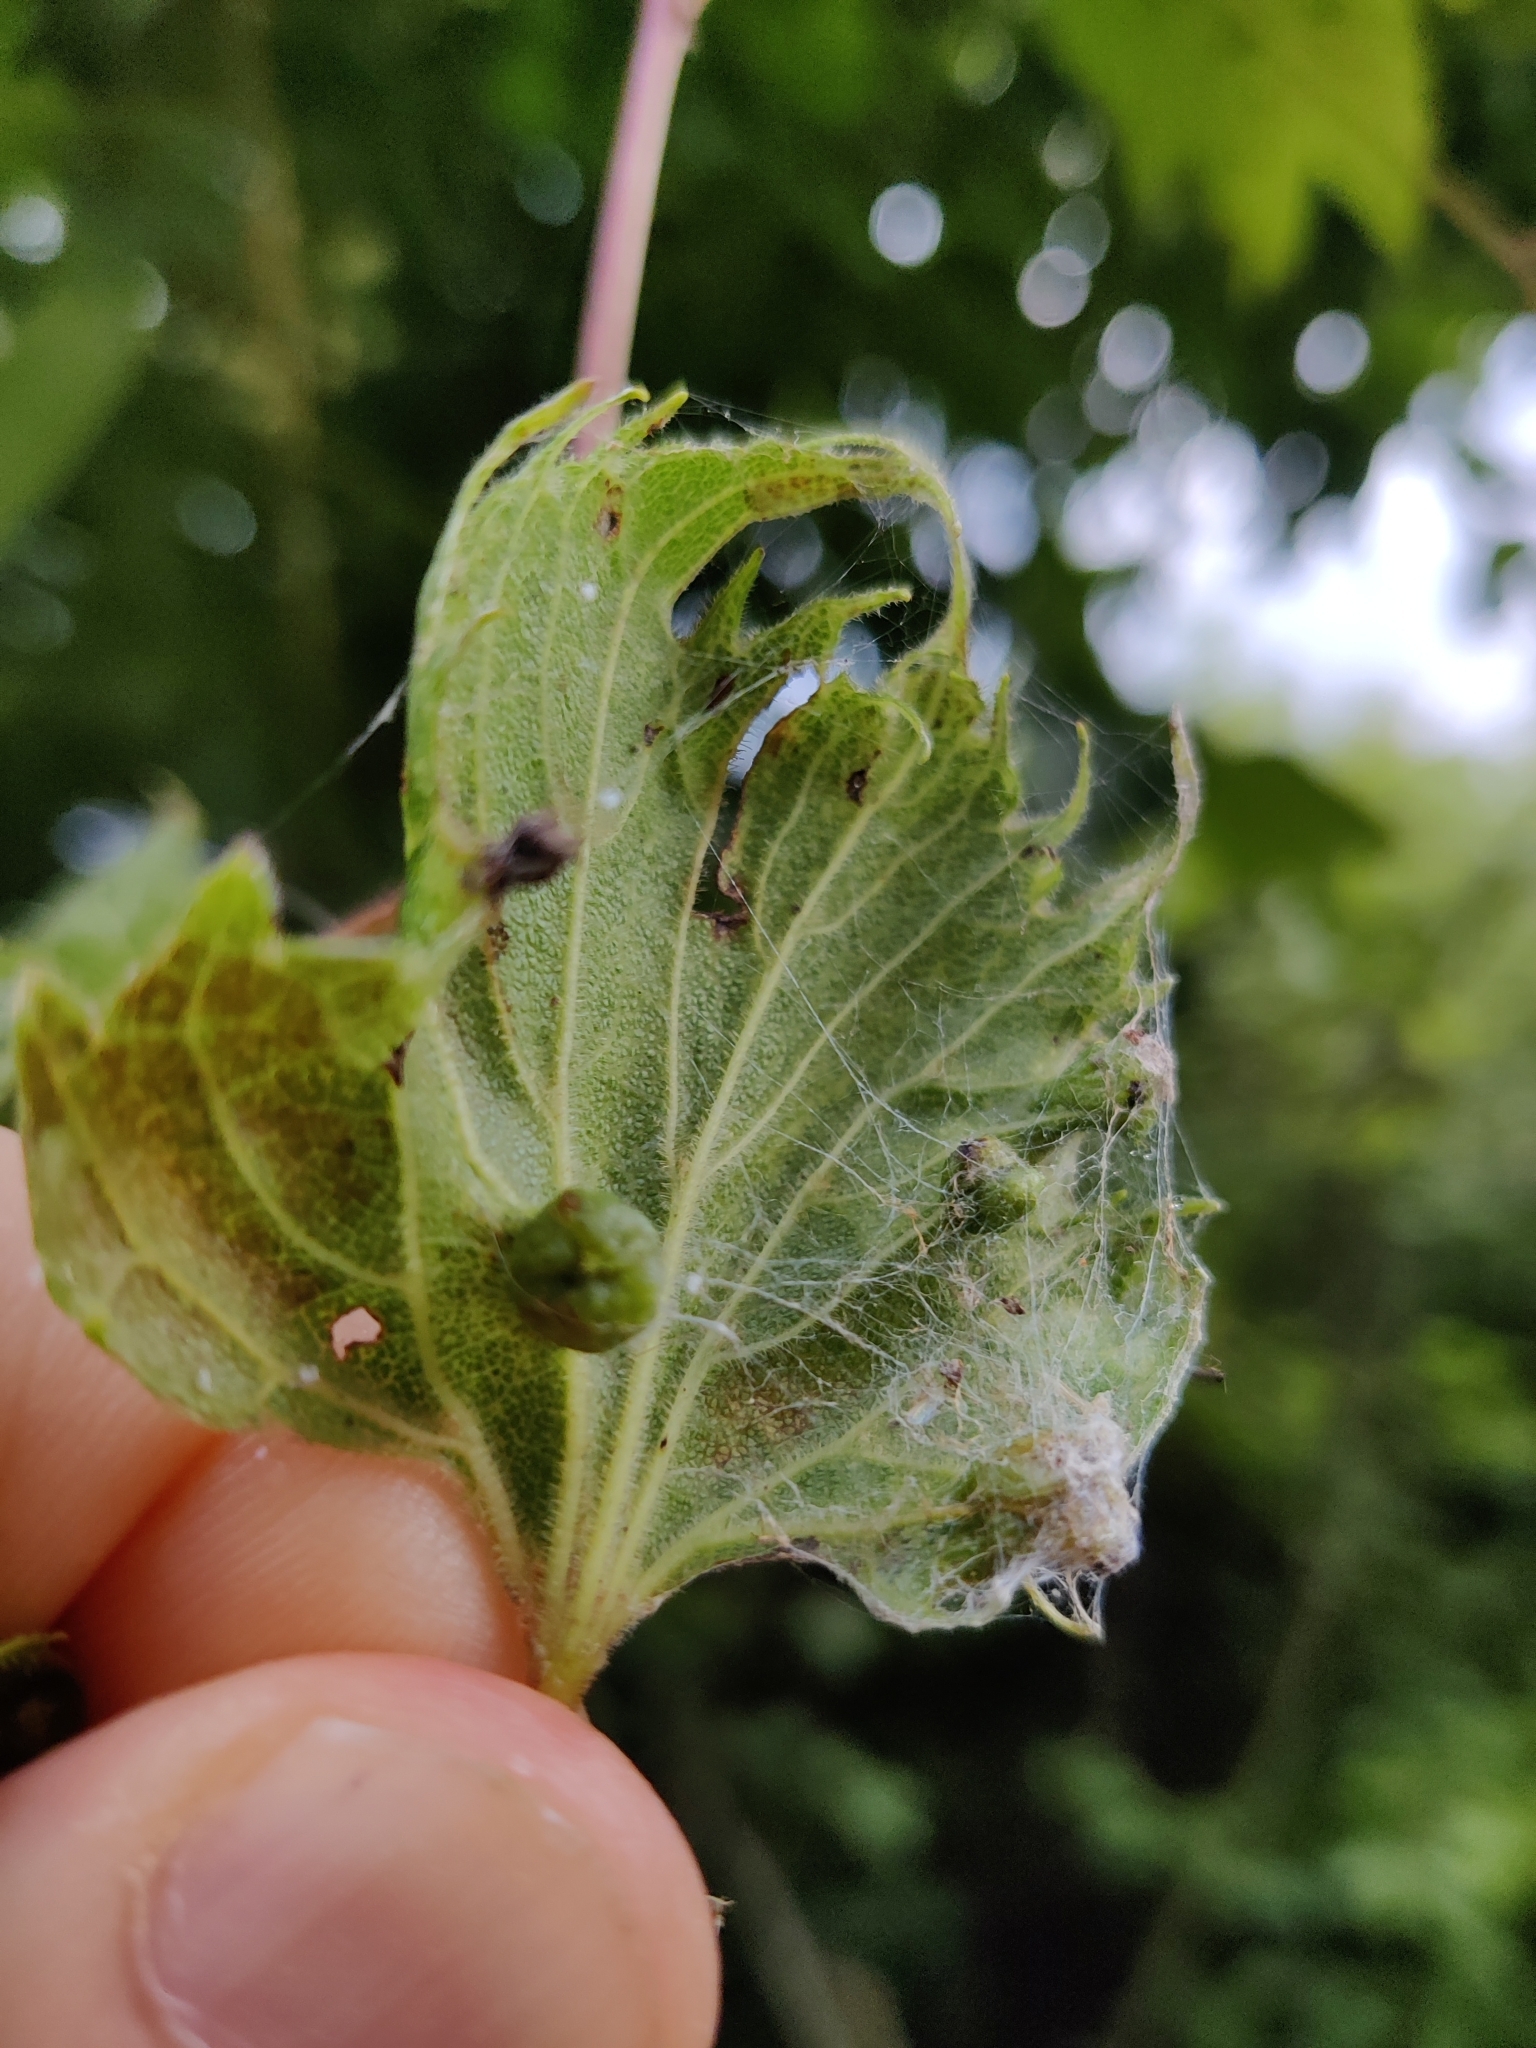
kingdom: Animalia
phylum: Arthropoda
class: Insecta
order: Hemiptera
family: Phylloxeridae
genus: Daktulosphaira
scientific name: Daktulosphaira vitifoliae
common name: Grape phylloxera
